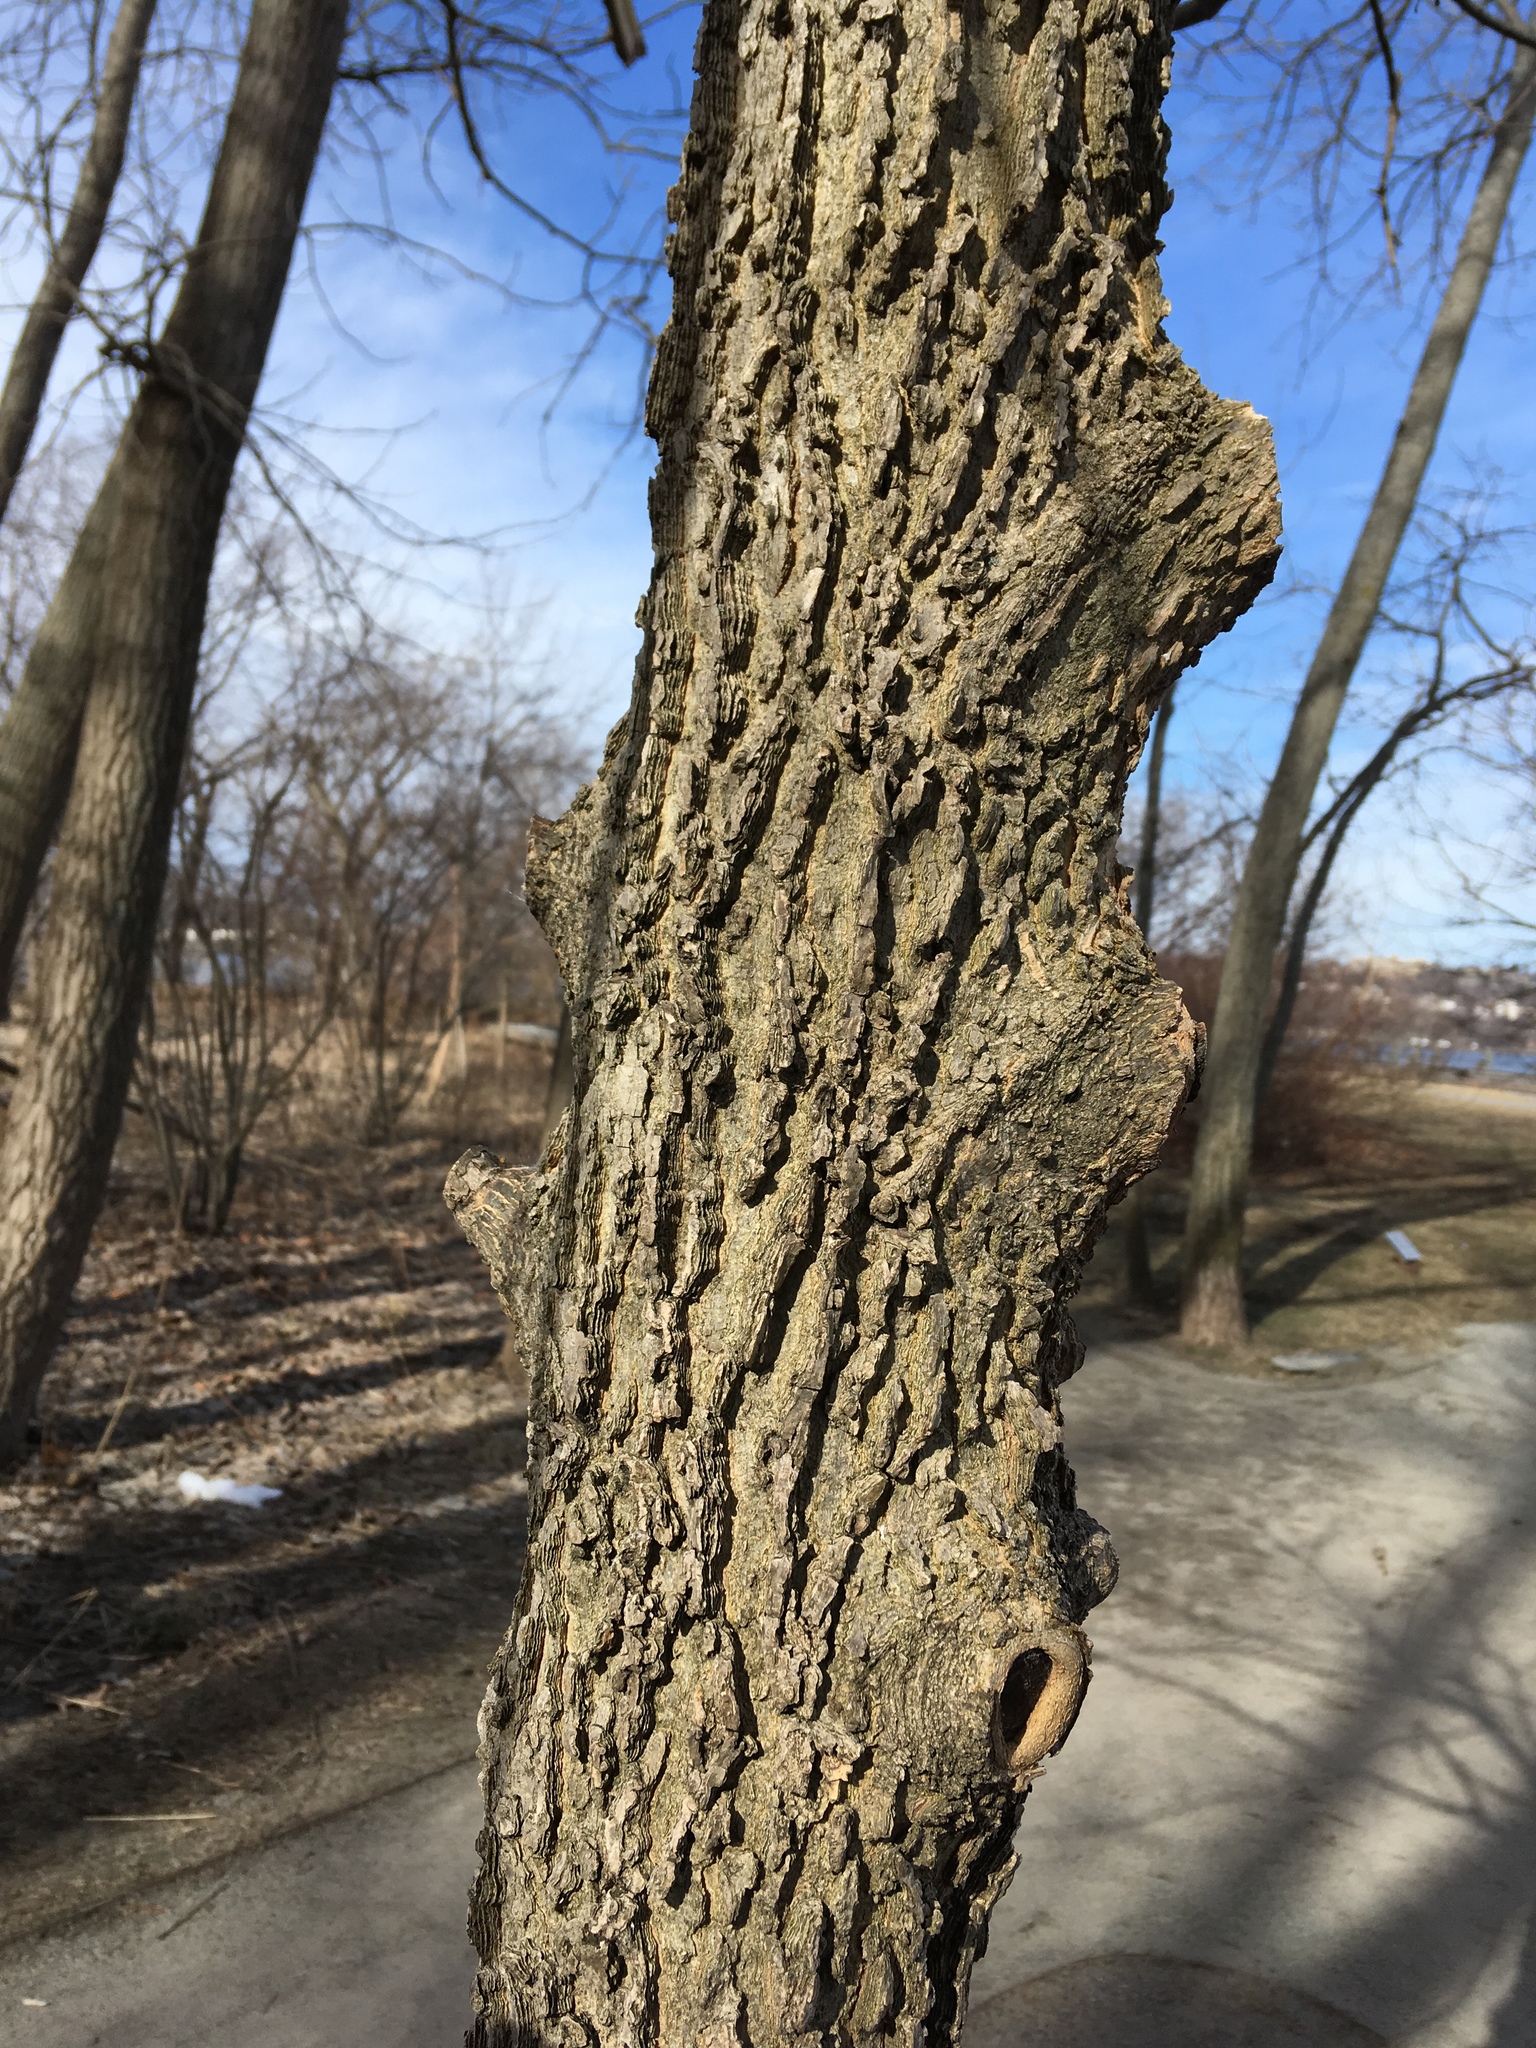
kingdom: Plantae
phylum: Tracheophyta
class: Magnoliopsida
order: Rosales
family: Cannabaceae
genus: Celtis
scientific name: Celtis occidentalis
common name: Common hackberry
